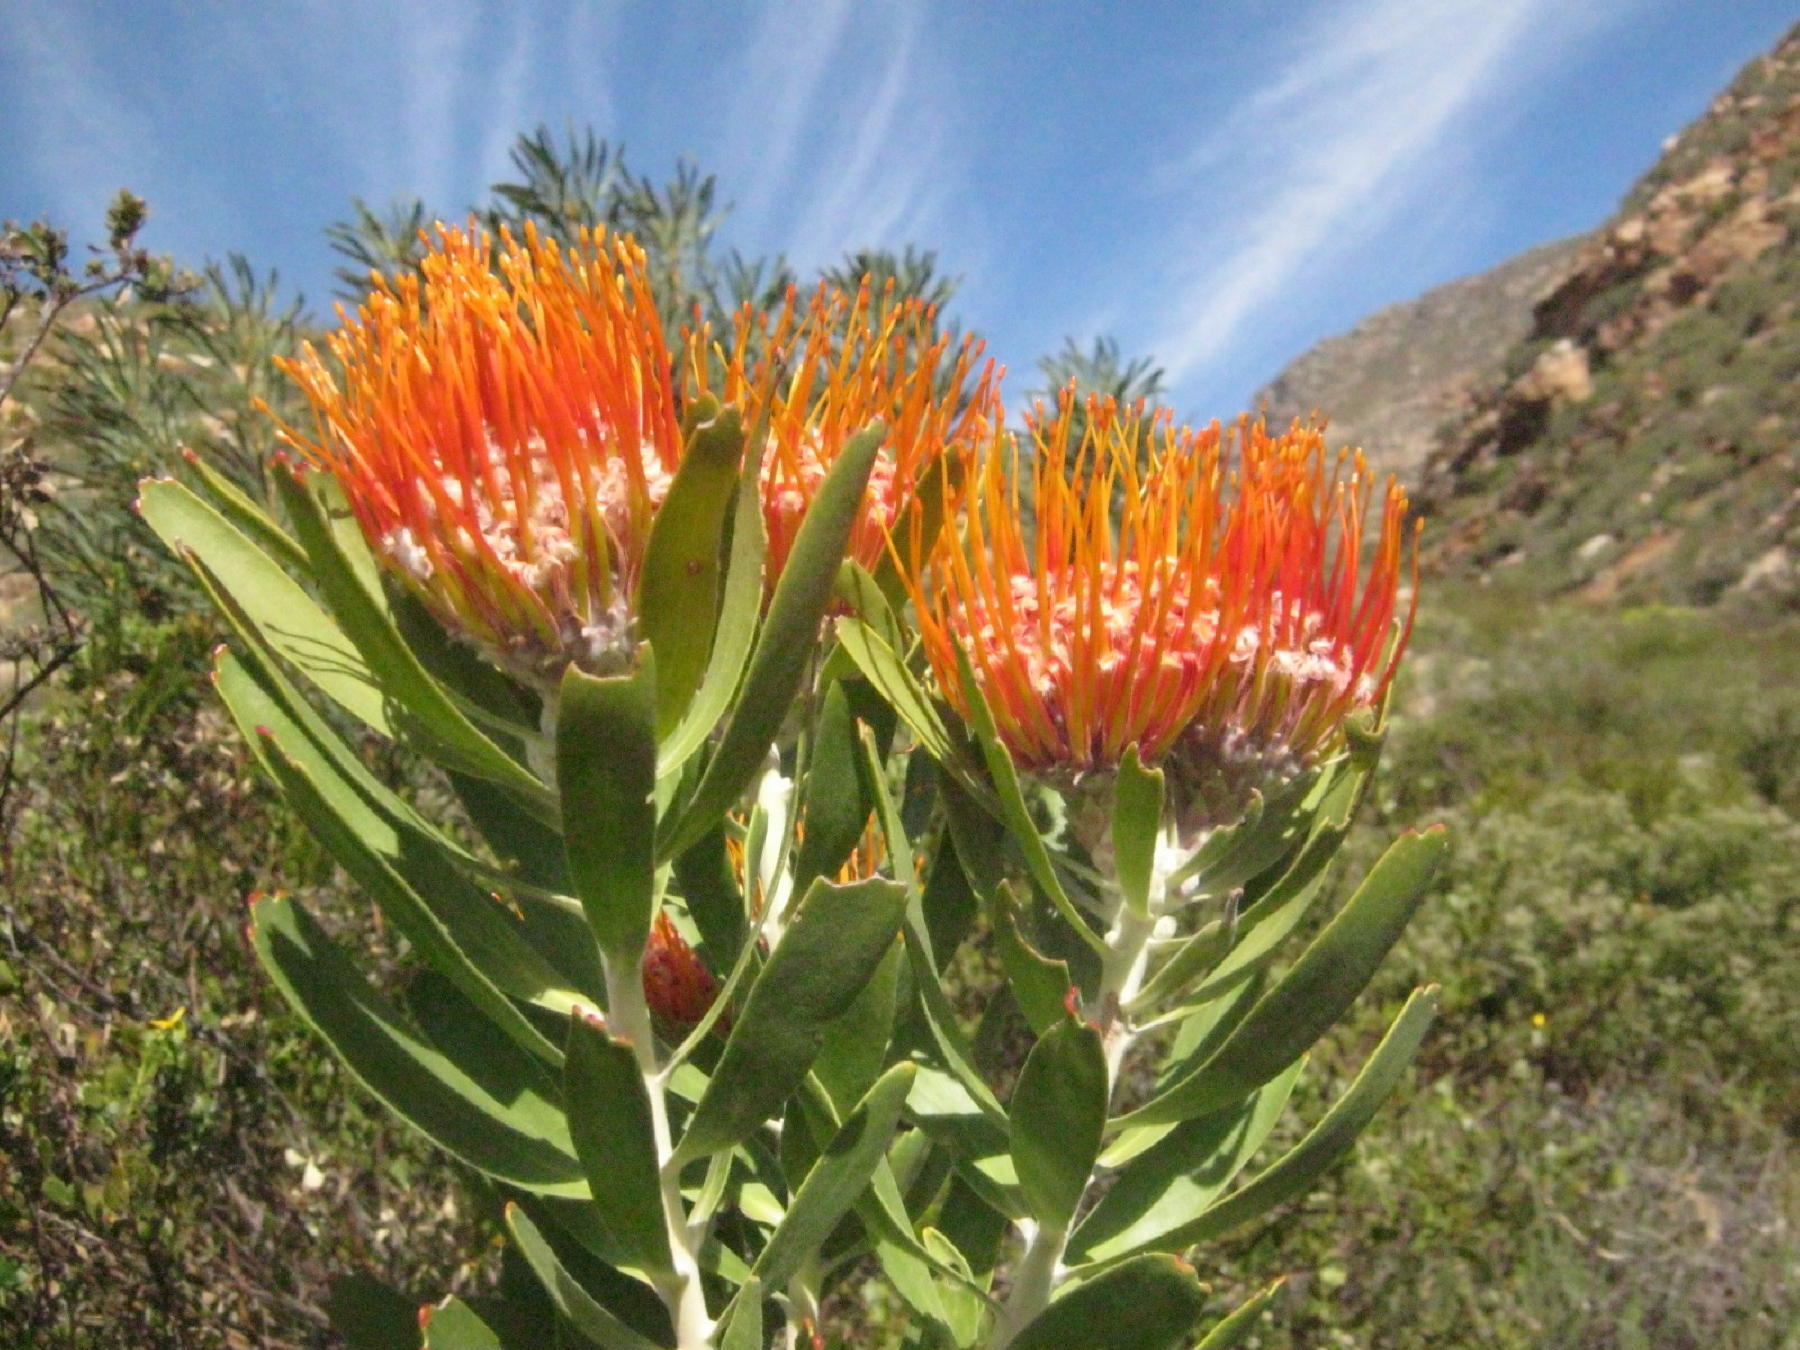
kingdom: Plantae
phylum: Tracheophyta
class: Magnoliopsida
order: Proteales
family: Proteaceae
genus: Leucospermum
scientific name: Leucospermum erubescens
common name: Oudtshoorn pincushion
